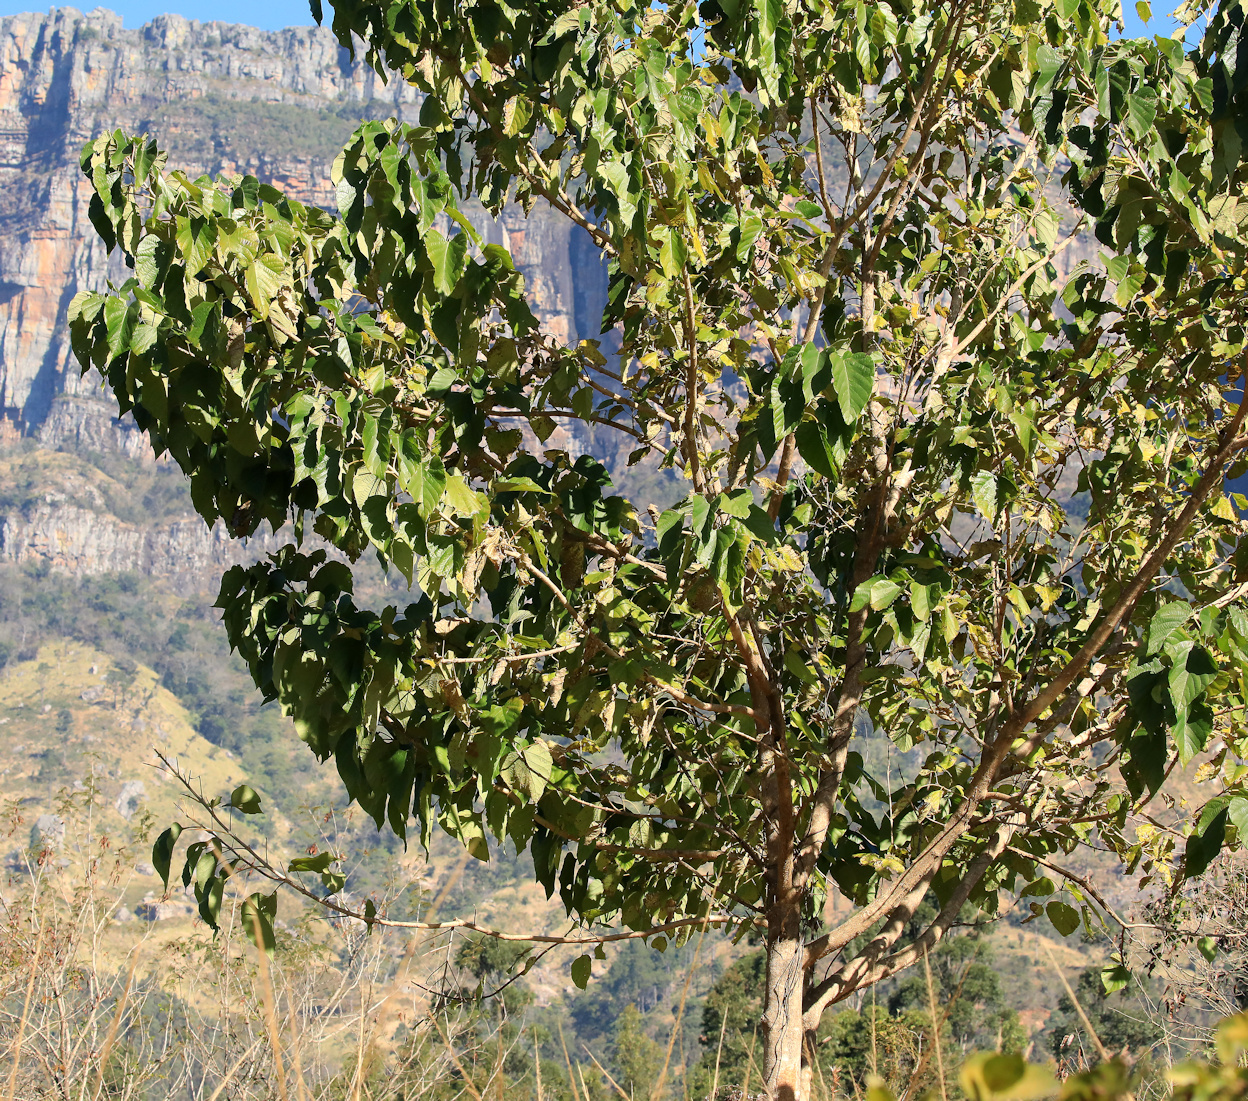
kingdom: Plantae
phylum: Tracheophyta
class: Magnoliopsida
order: Lamiales
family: Lamiaceae
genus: Gmelina
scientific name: Gmelina arborea
